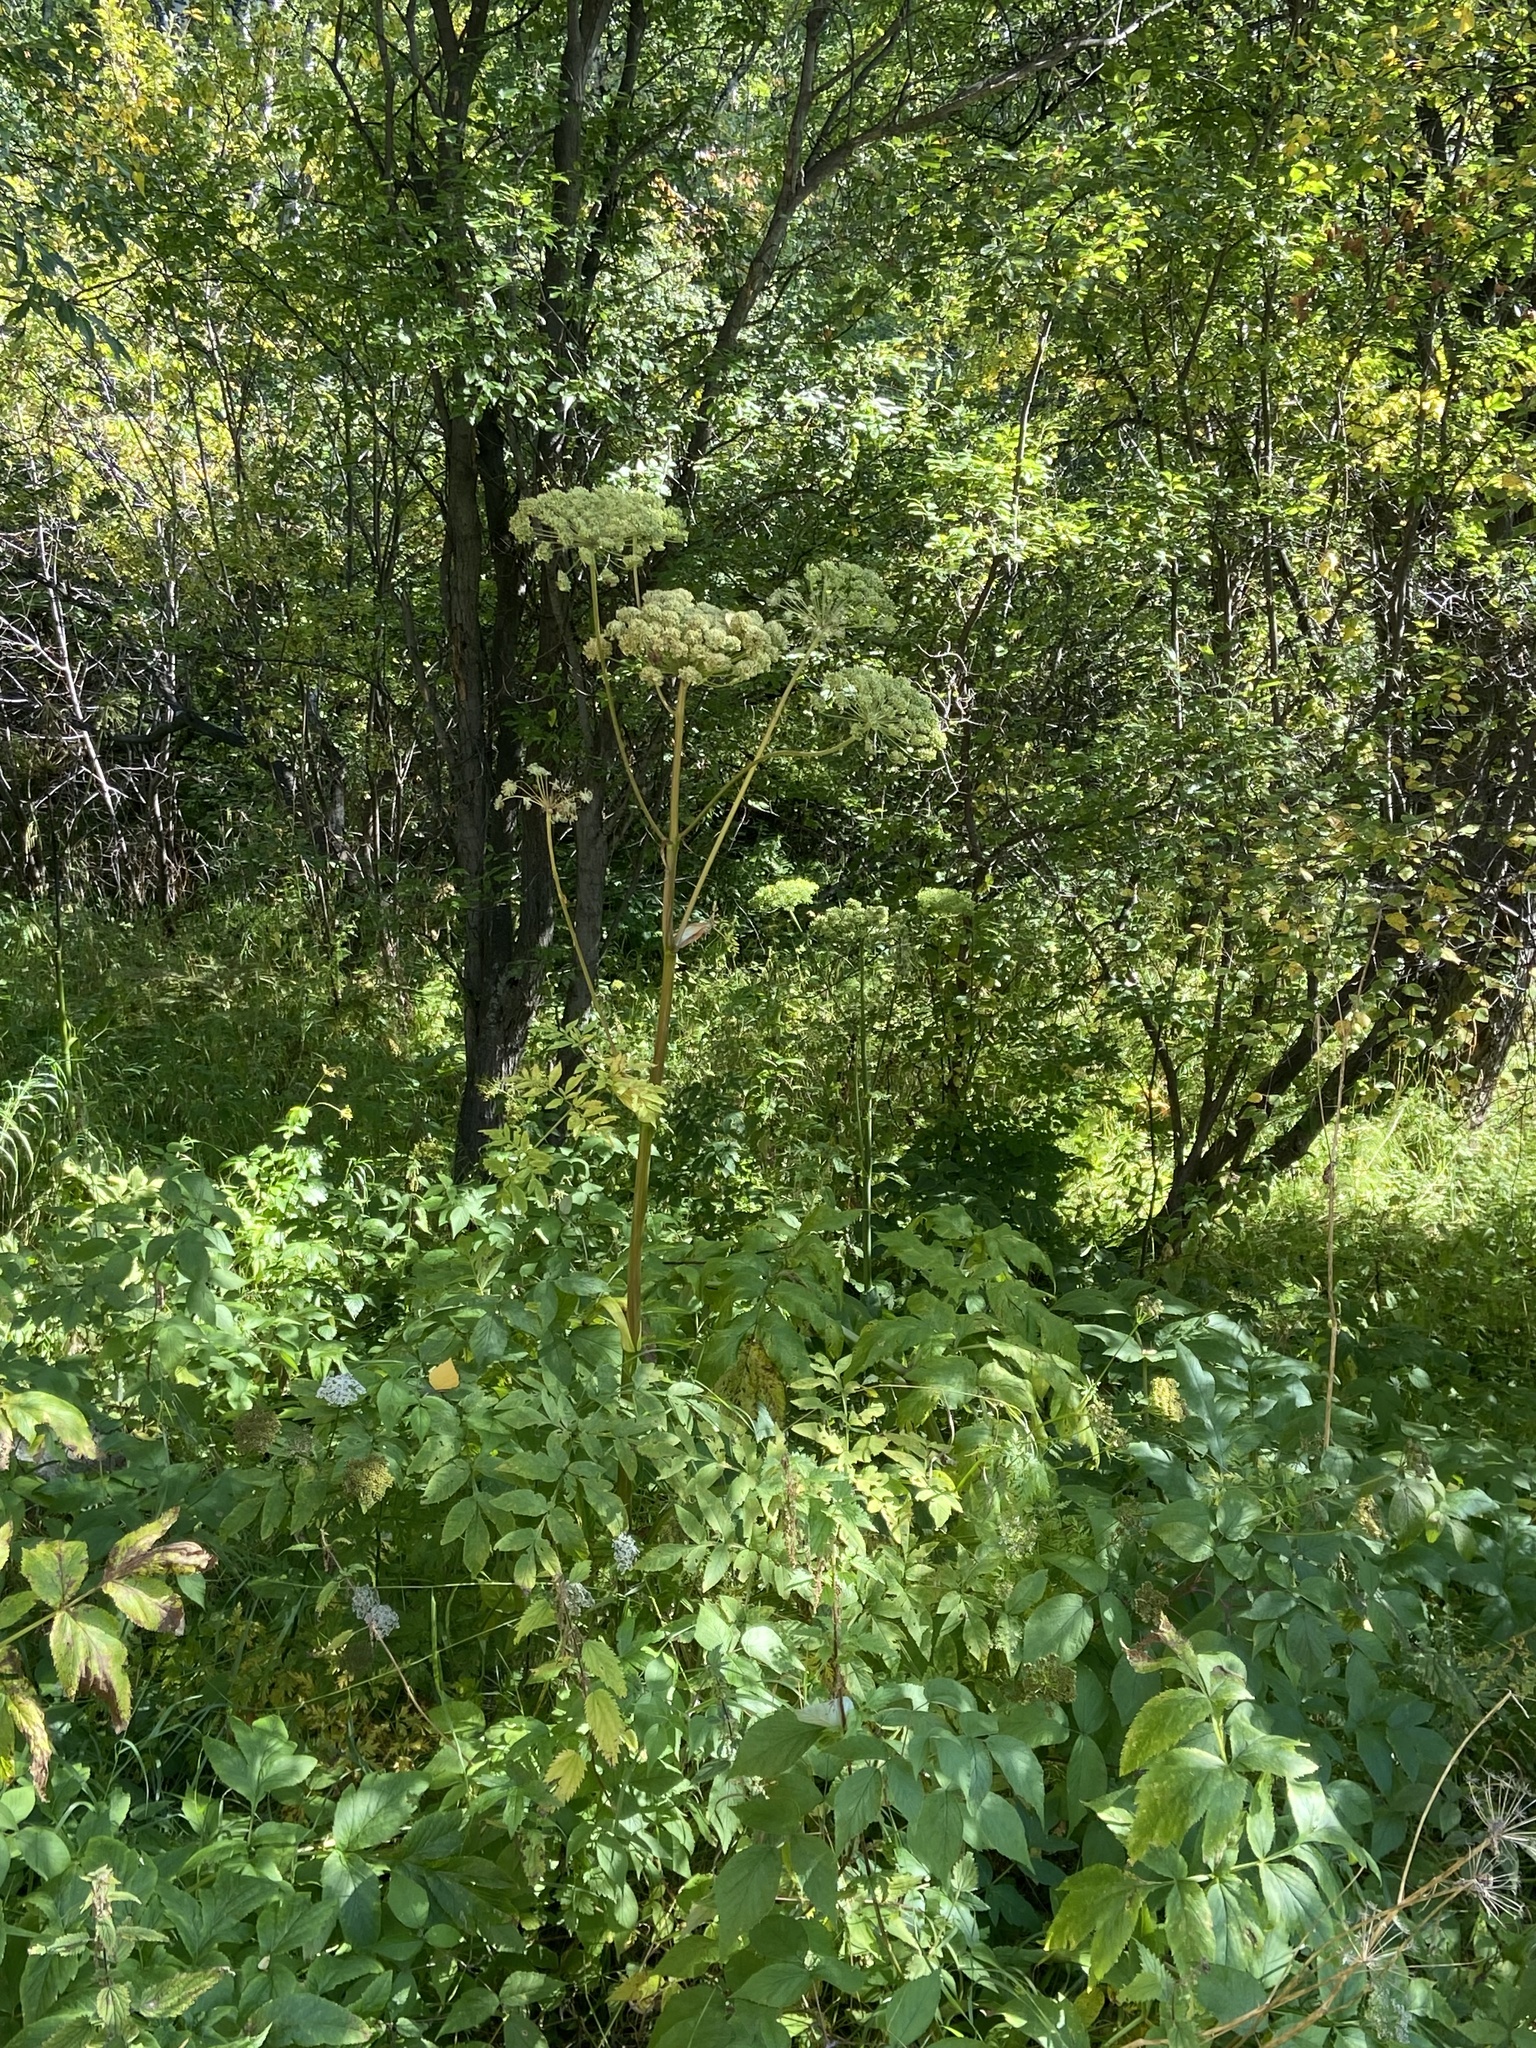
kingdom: Plantae
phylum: Tracheophyta
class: Magnoliopsida
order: Apiales
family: Apiaceae
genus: Angelica
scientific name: Angelica sylvestris
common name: Wild angelica
